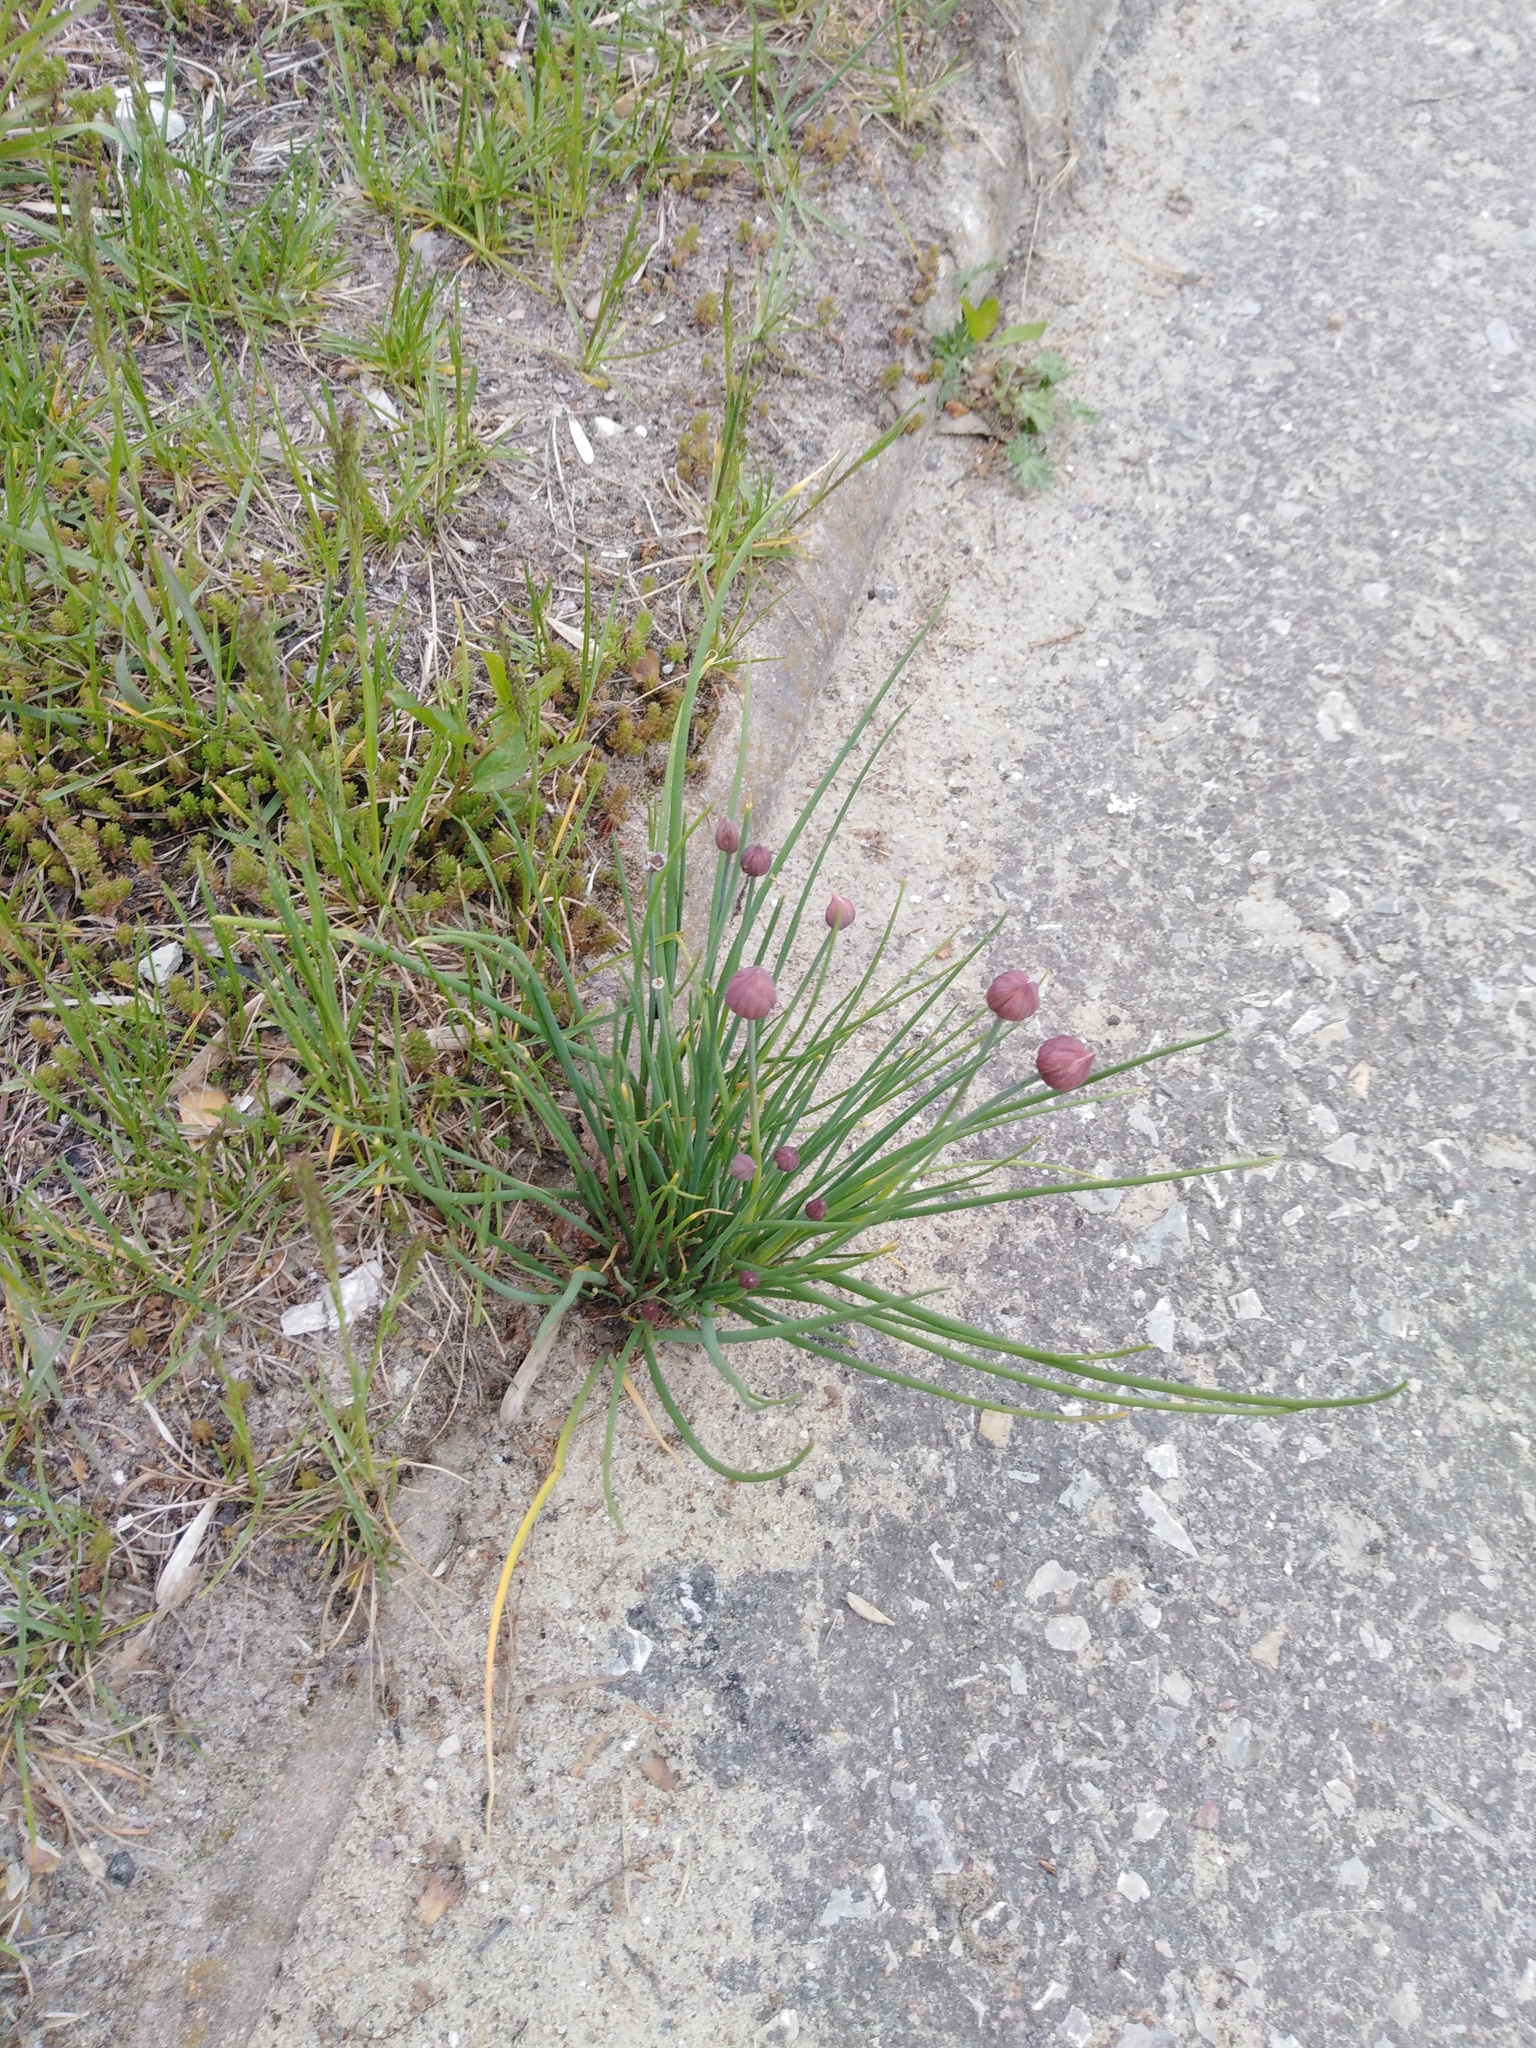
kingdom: Plantae
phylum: Tracheophyta
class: Liliopsida
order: Asparagales
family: Amaryllidaceae
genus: Allium
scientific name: Allium schoenoprasum
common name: Chives
